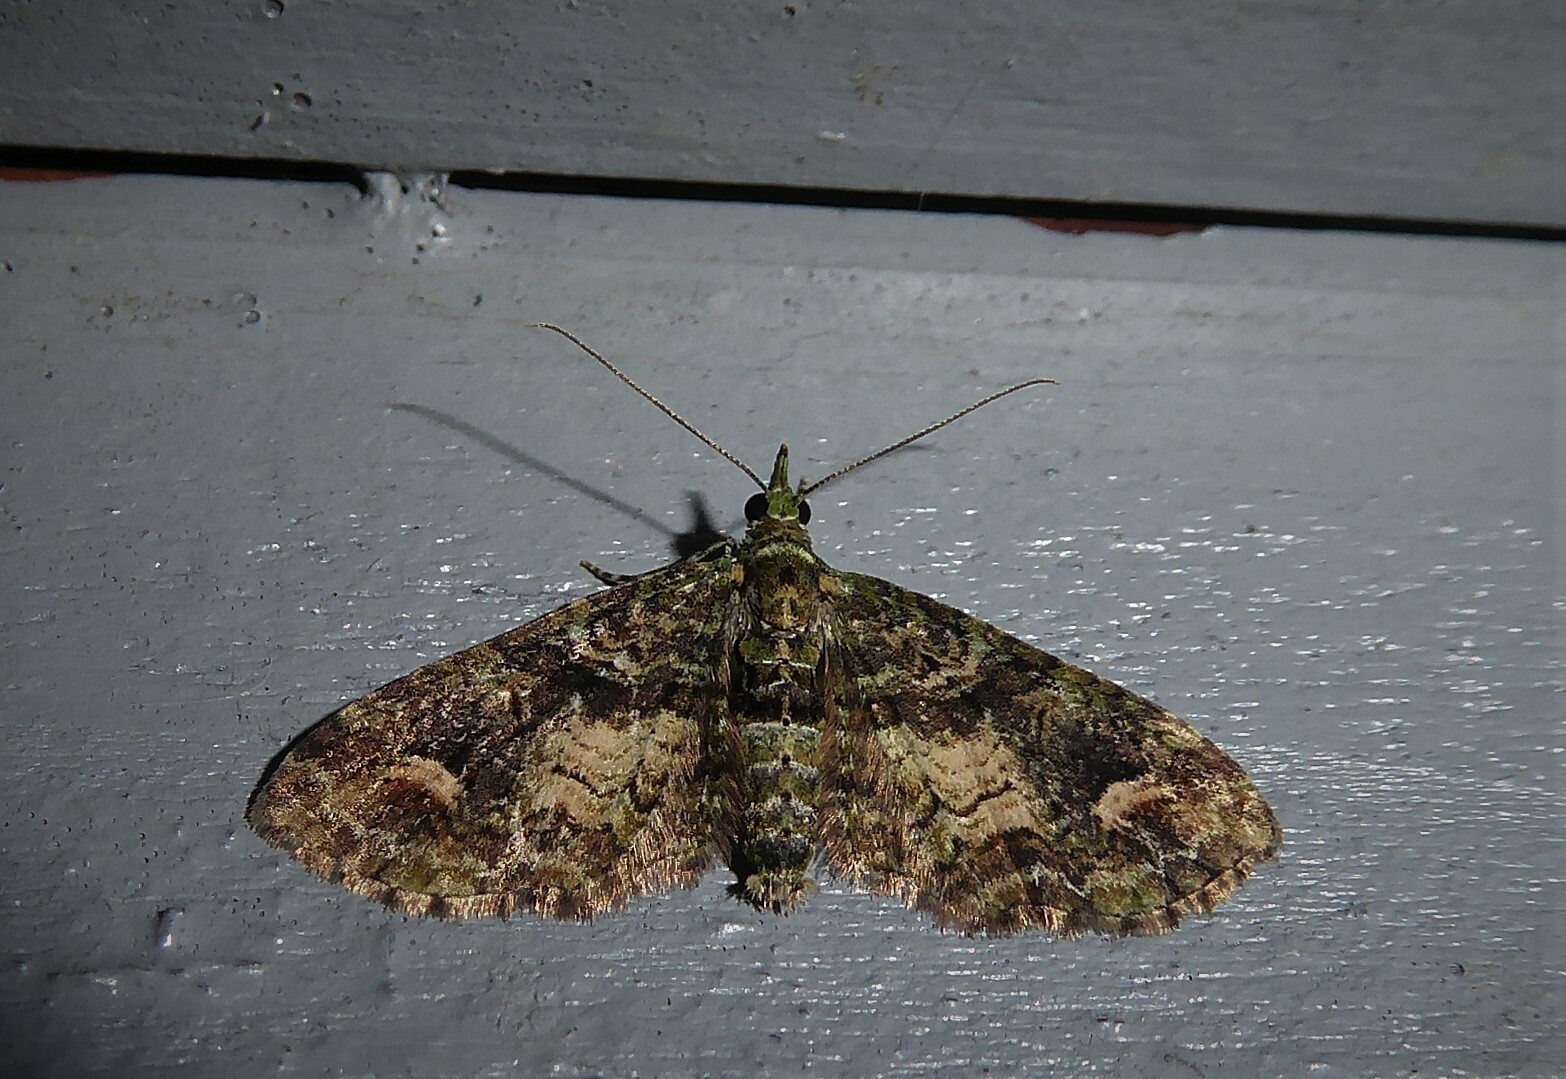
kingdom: Animalia
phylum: Arthropoda
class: Insecta
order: Lepidoptera
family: Geometridae
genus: Idaea
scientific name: Idaea mutanda
